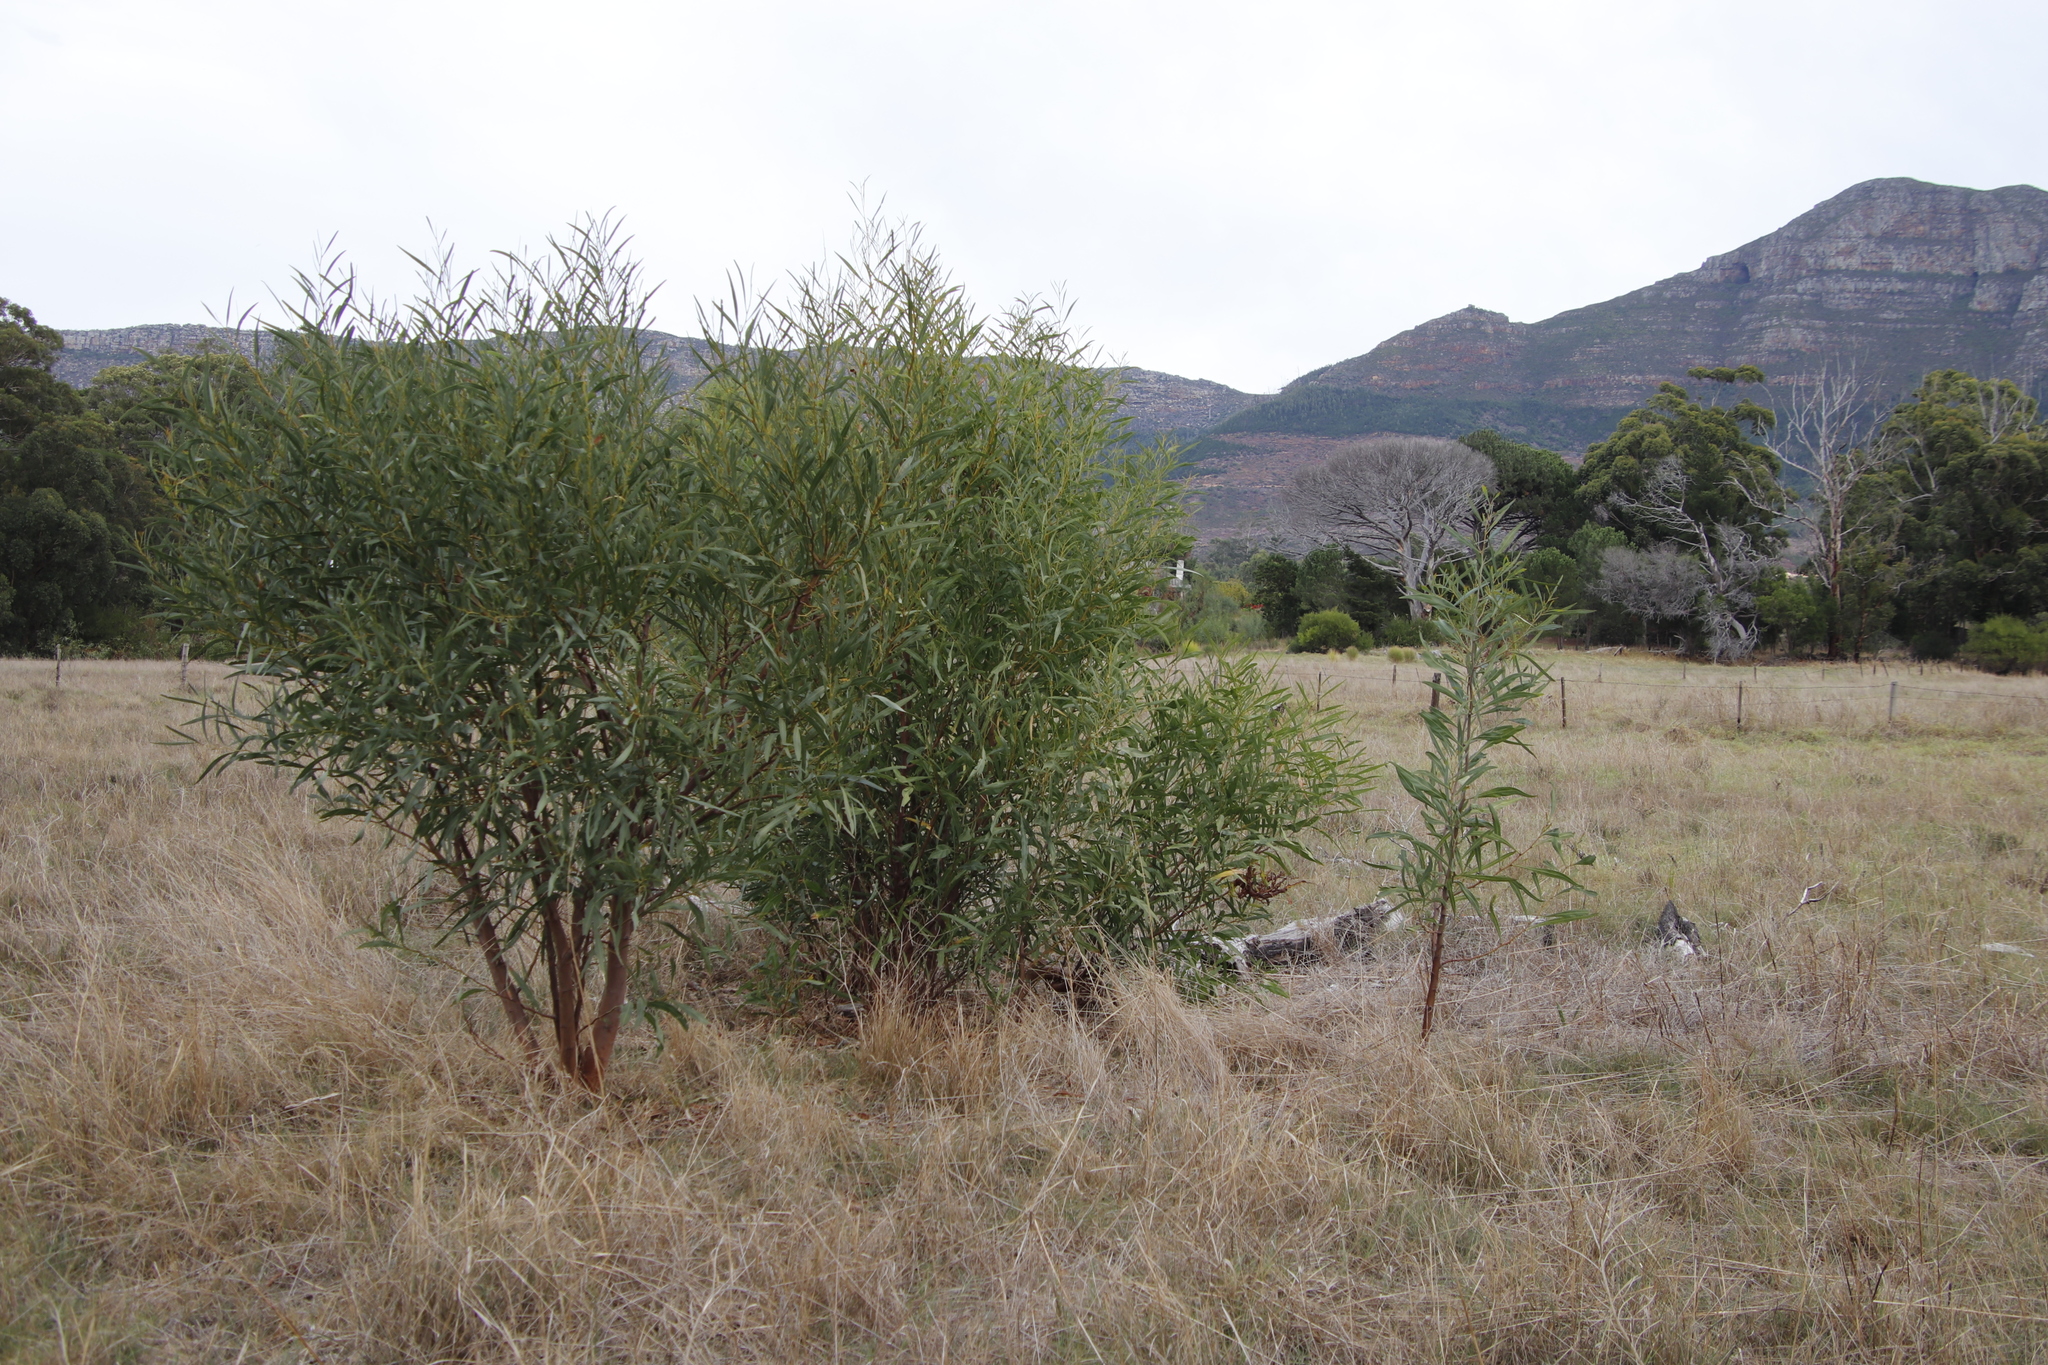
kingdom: Plantae
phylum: Tracheophyta
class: Magnoliopsida
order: Fabales
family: Fabaceae
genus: Acacia
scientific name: Acacia saligna
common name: Orange wattle
